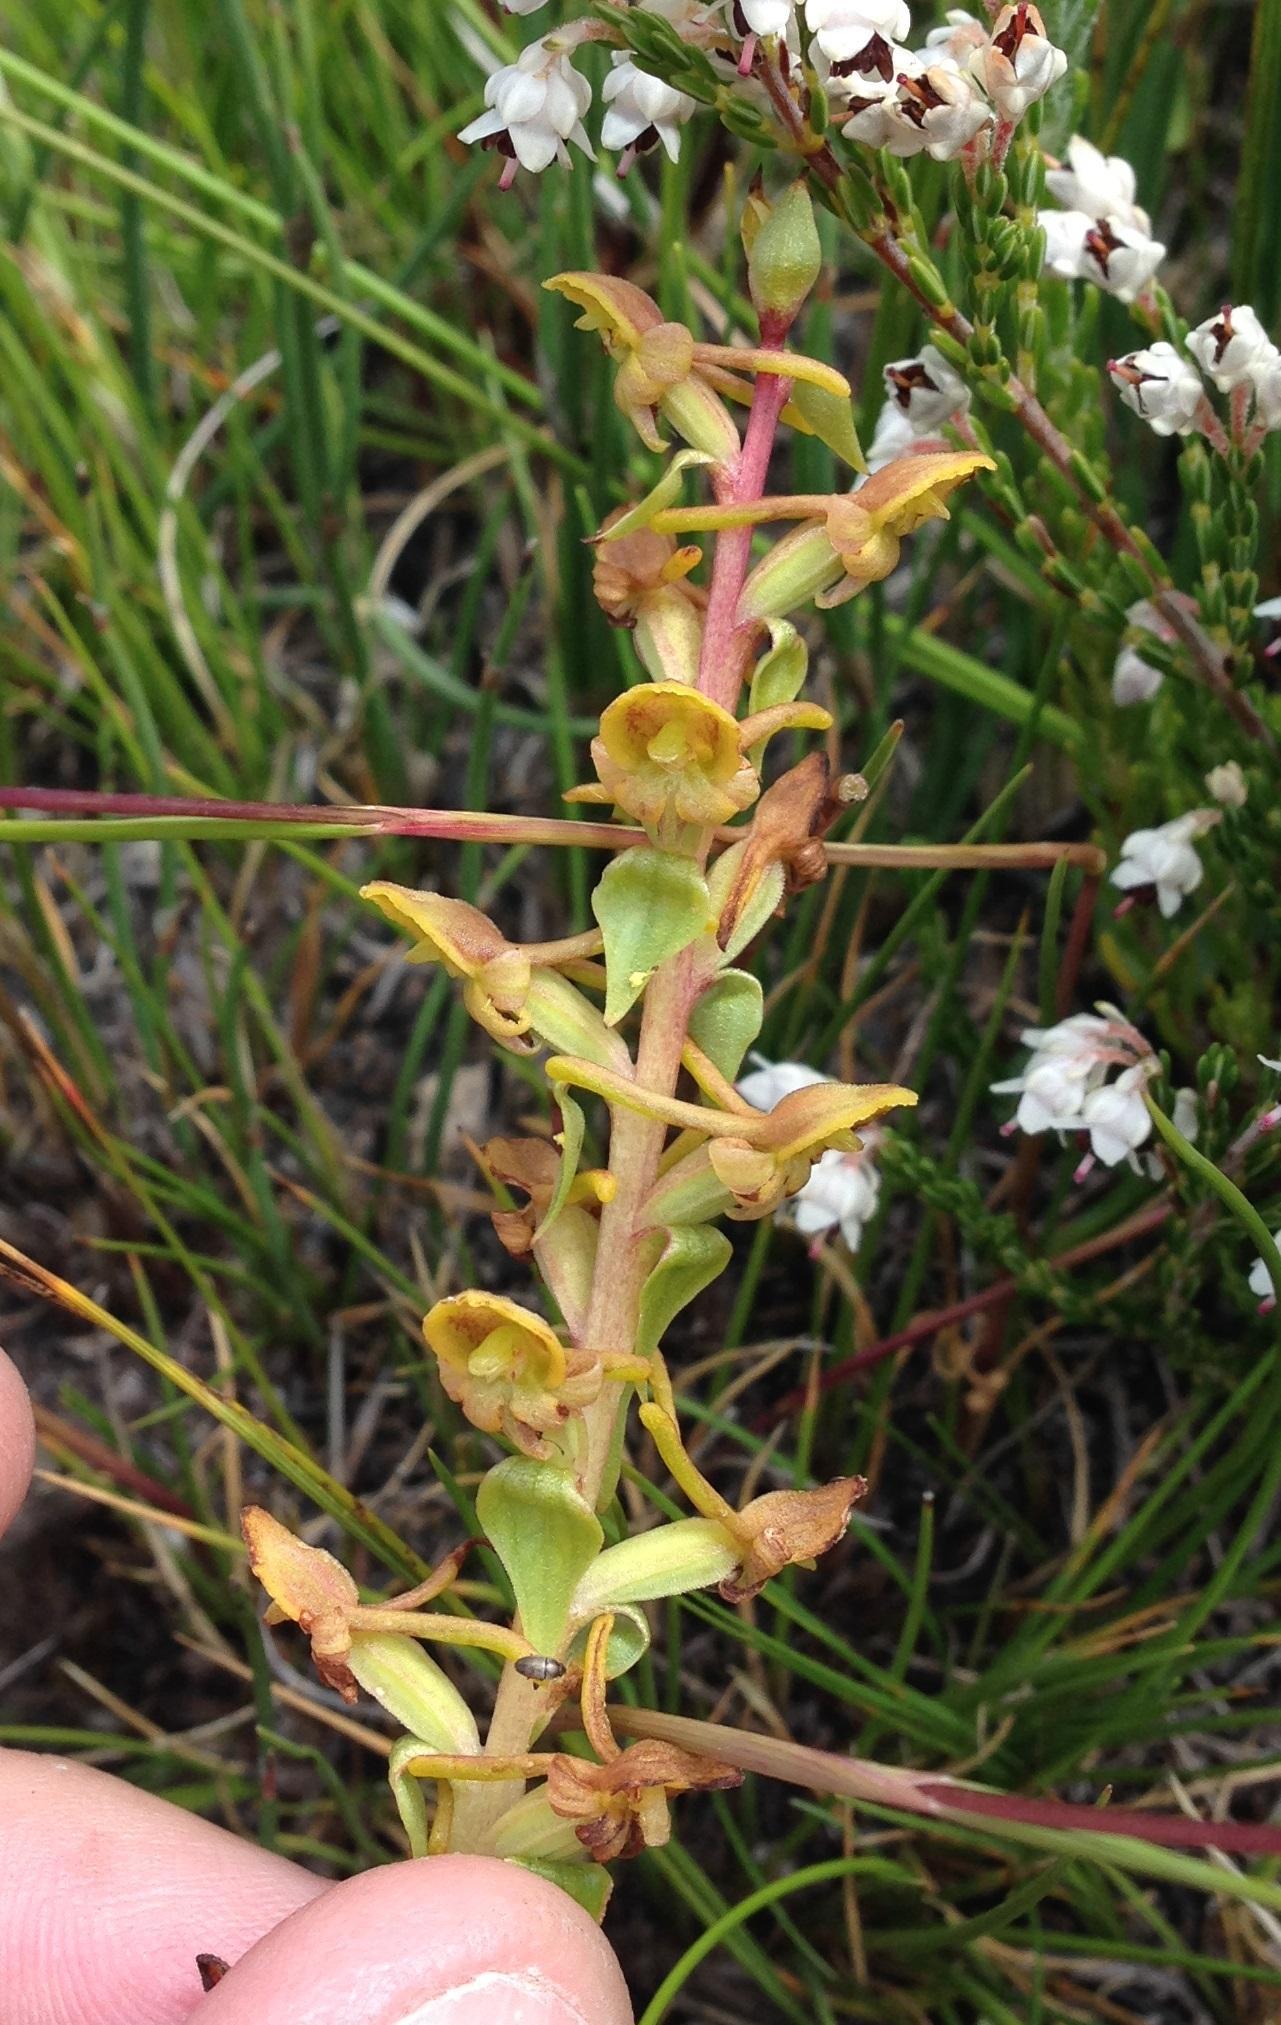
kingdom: Plantae
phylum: Tracheophyta
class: Liliopsida
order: Asparagales
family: Orchidaceae
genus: Satyrium
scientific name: Satyrium pygmaeum
